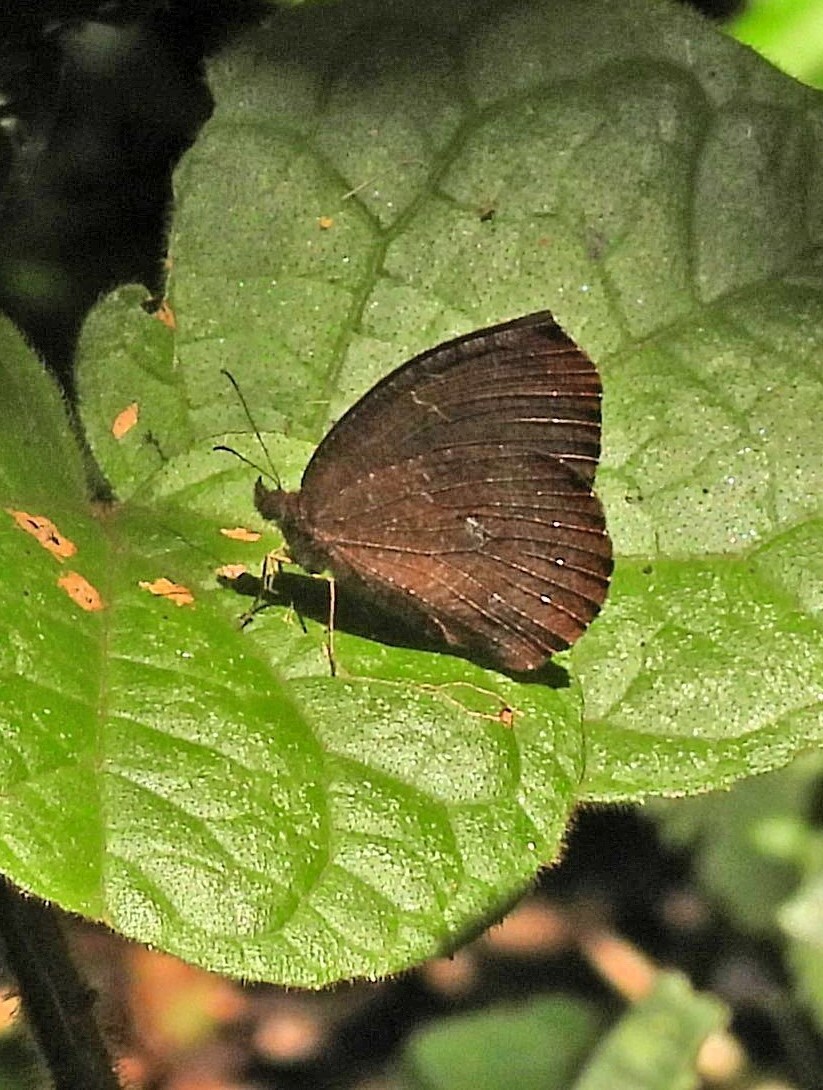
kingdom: Animalia
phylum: Arthropoda
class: Insecta
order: Lepidoptera
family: Nymphalidae
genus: Godartiana
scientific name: Godartiana muscosa
